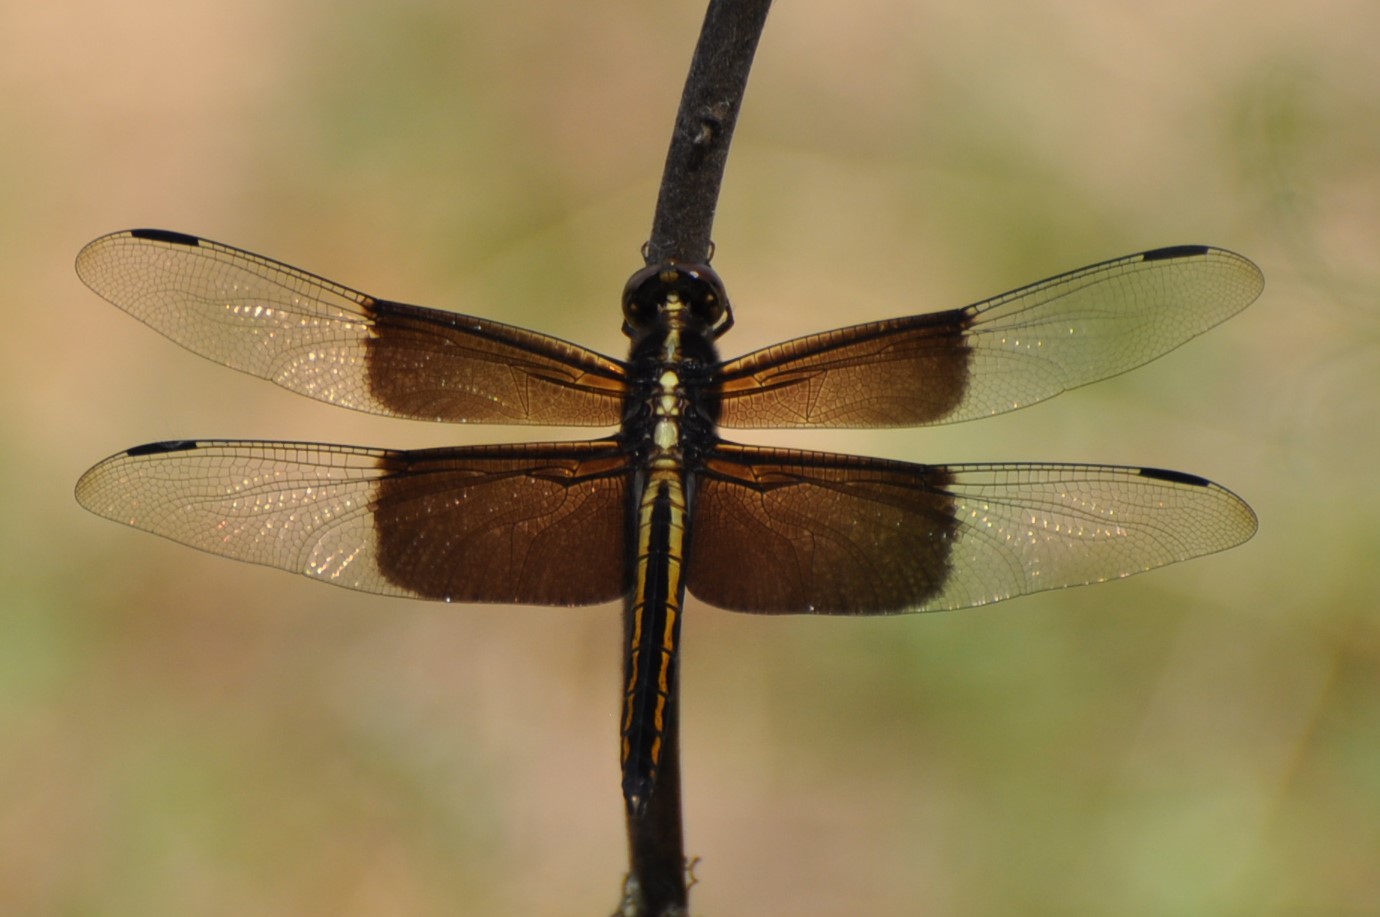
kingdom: Animalia
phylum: Arthropoda
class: Insecta
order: Odonata
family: Libellulidae
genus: Libellula
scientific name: Libellula luctuosa
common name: Widow skimmer
